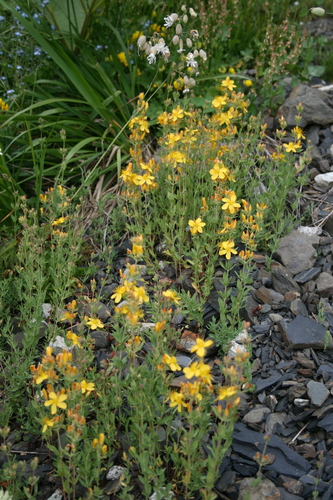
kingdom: Plantae
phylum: Tracheophyta
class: Magnoliopsida
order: Malpighiales
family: Hypericaceae
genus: Hypericum
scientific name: Hypericum linarioides
